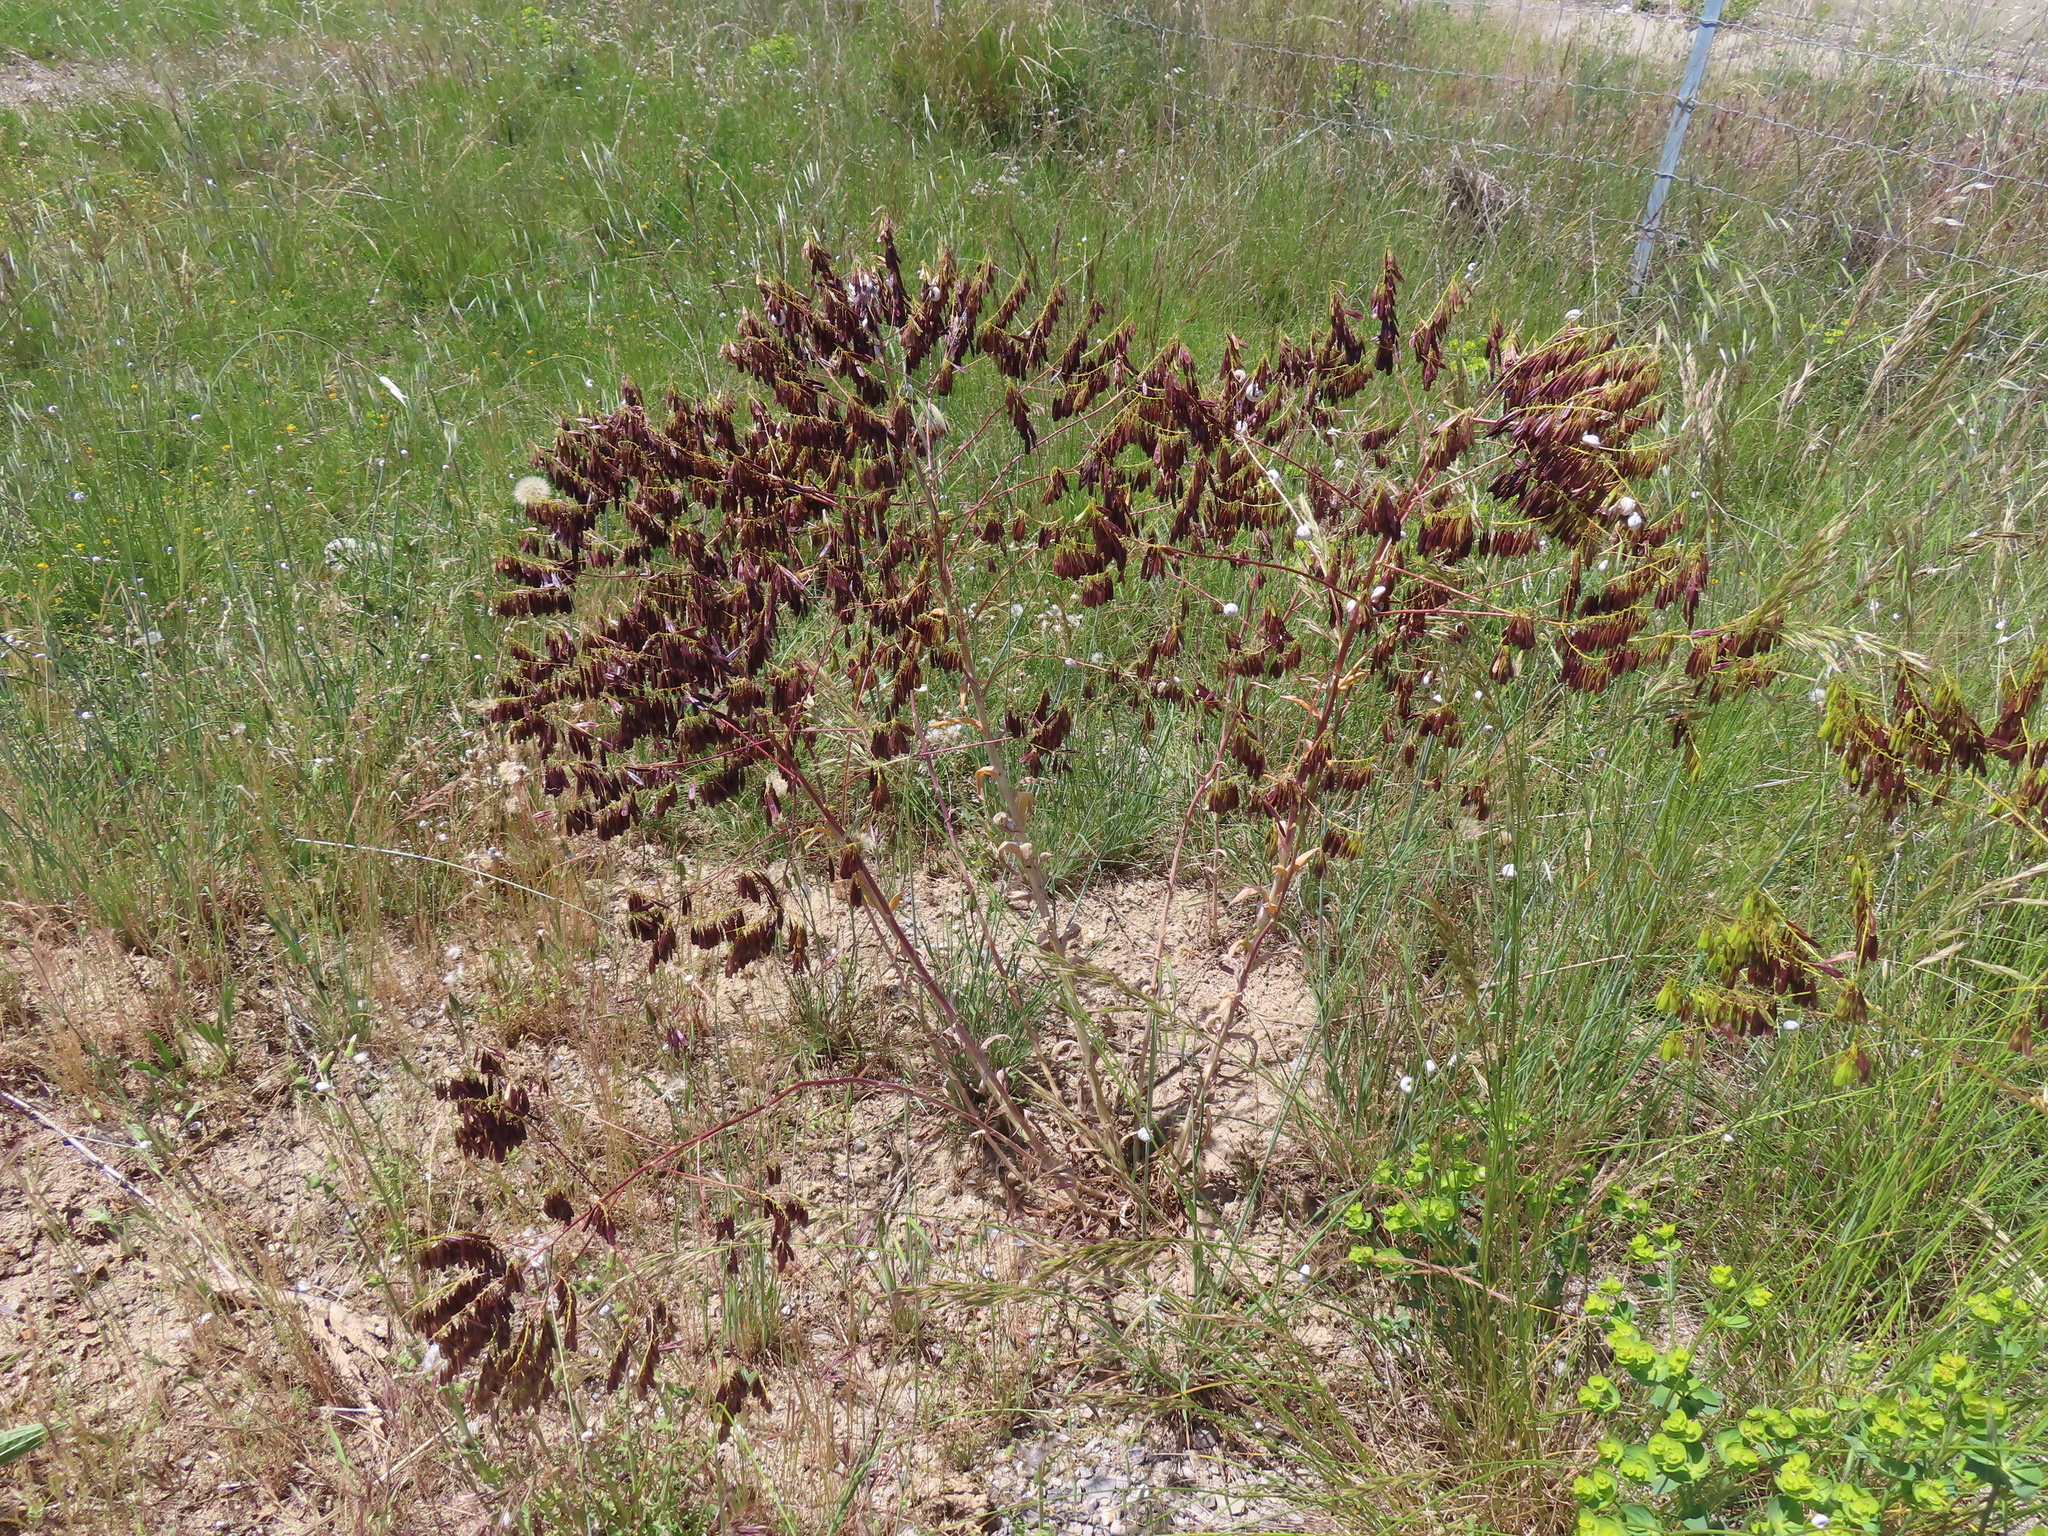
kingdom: Plantae
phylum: Tracheophyta
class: Magnoliopsida
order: Brassicales
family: Brassicaceae
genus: Isatis
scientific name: Isatis tinctoria
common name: Woad
